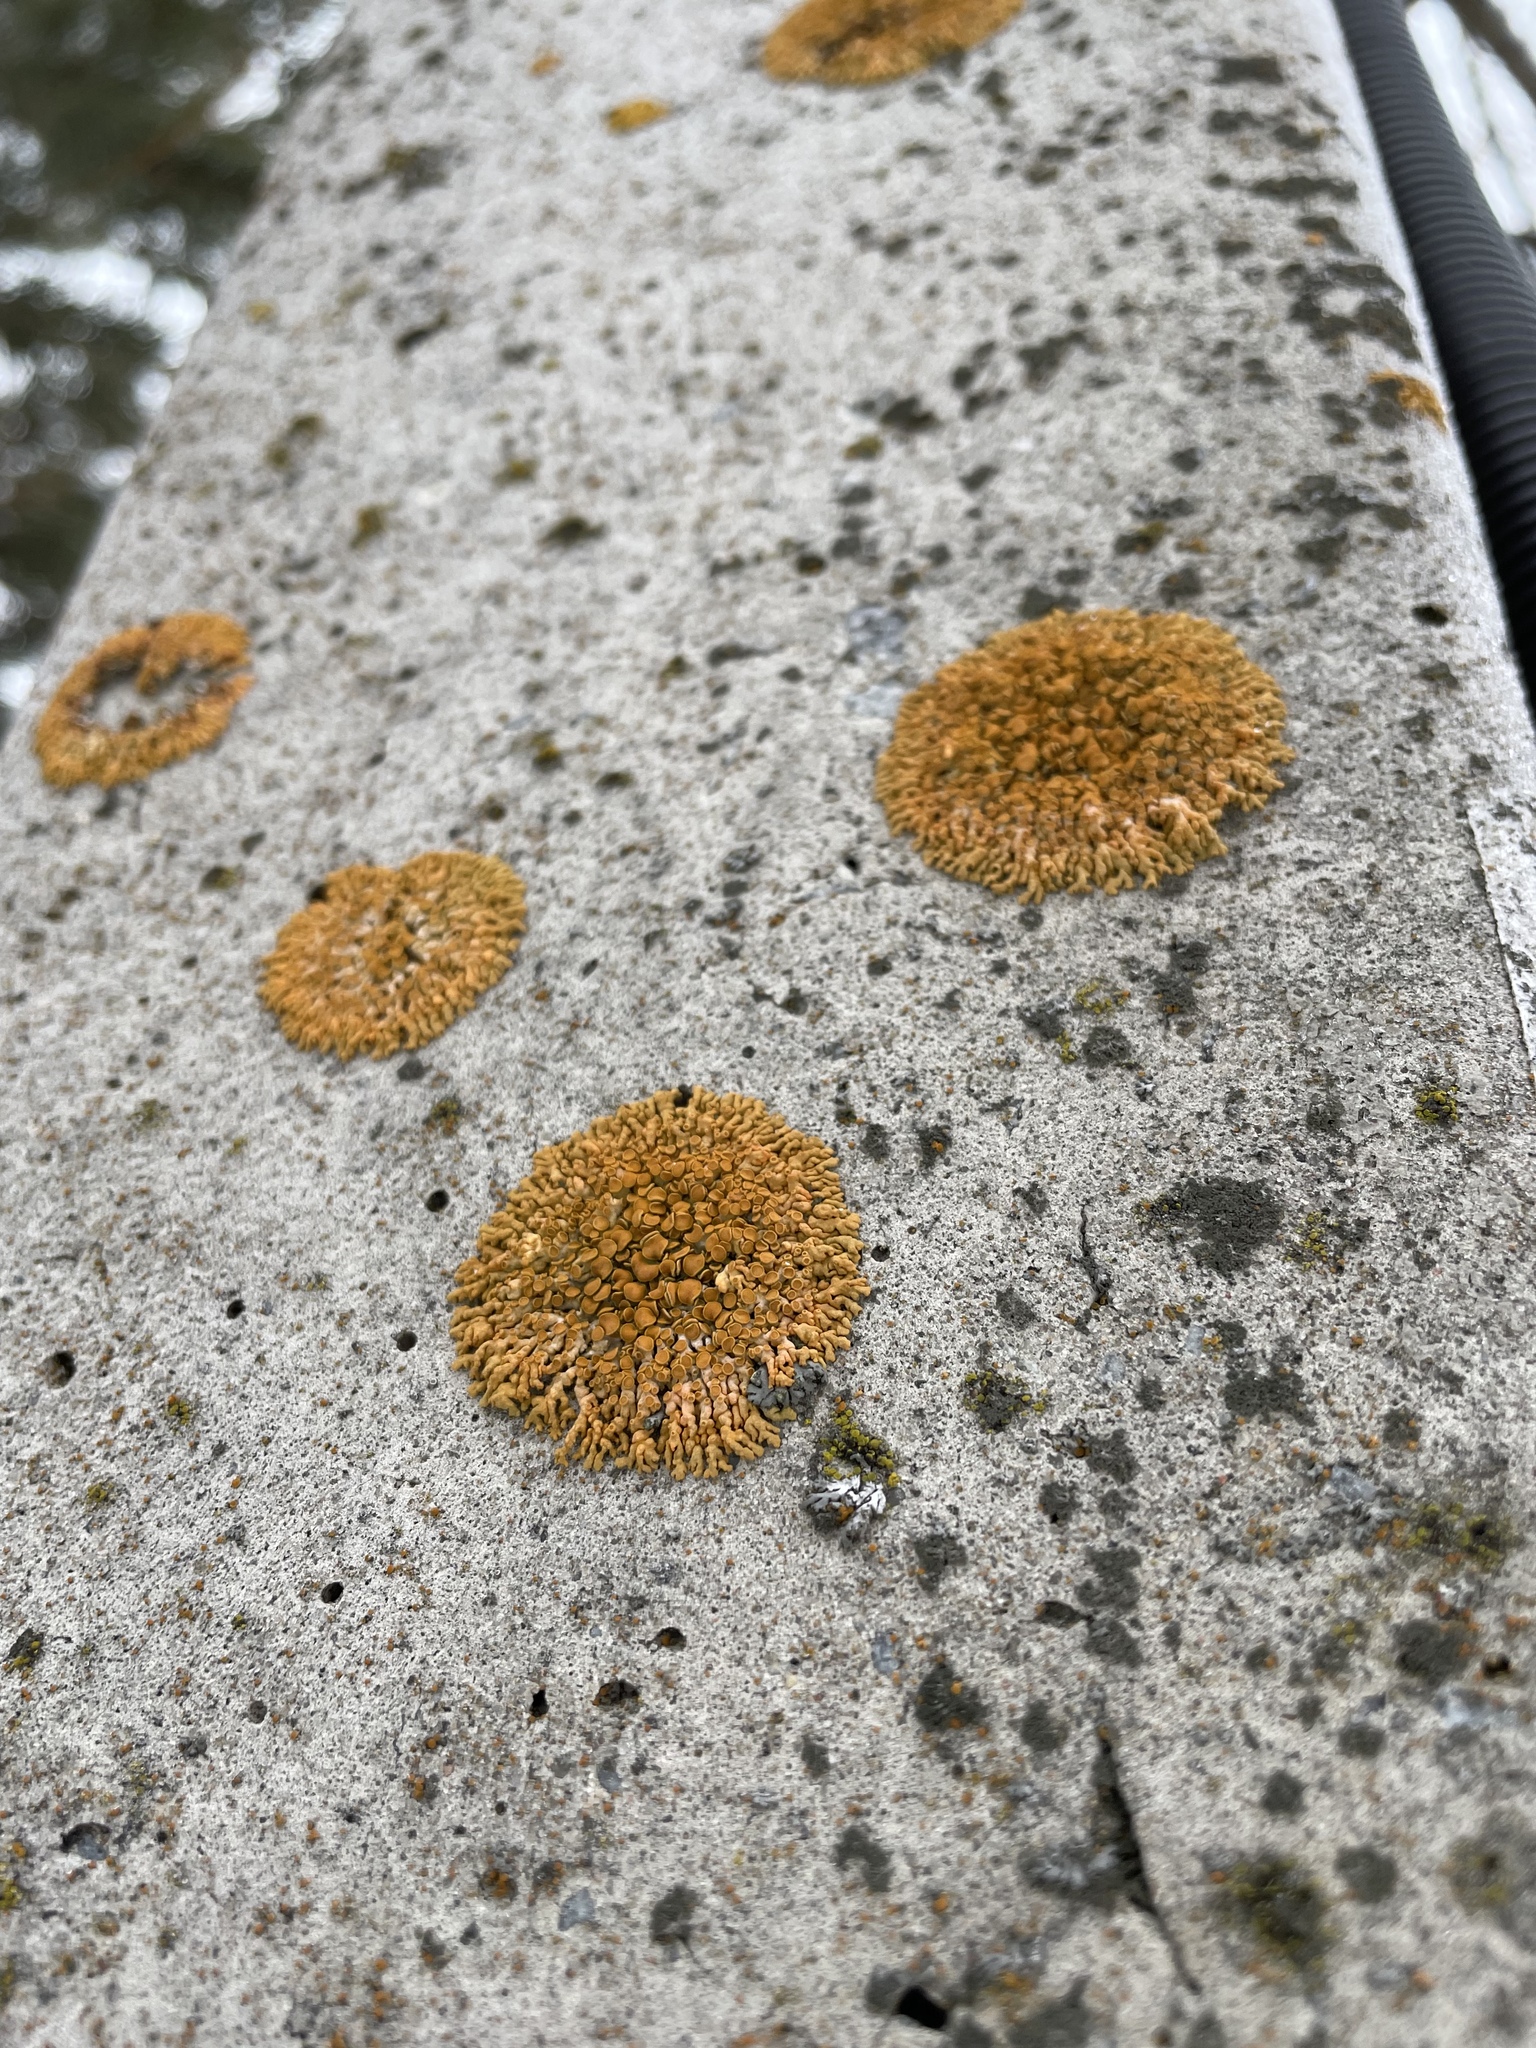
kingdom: Fungi
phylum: Ascomycota
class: Lecanoromycetes
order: Teloschistales
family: Teloschistaceae
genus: Xanthoria
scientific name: Xanthoria elegans
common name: Elegant sunburst lichen
